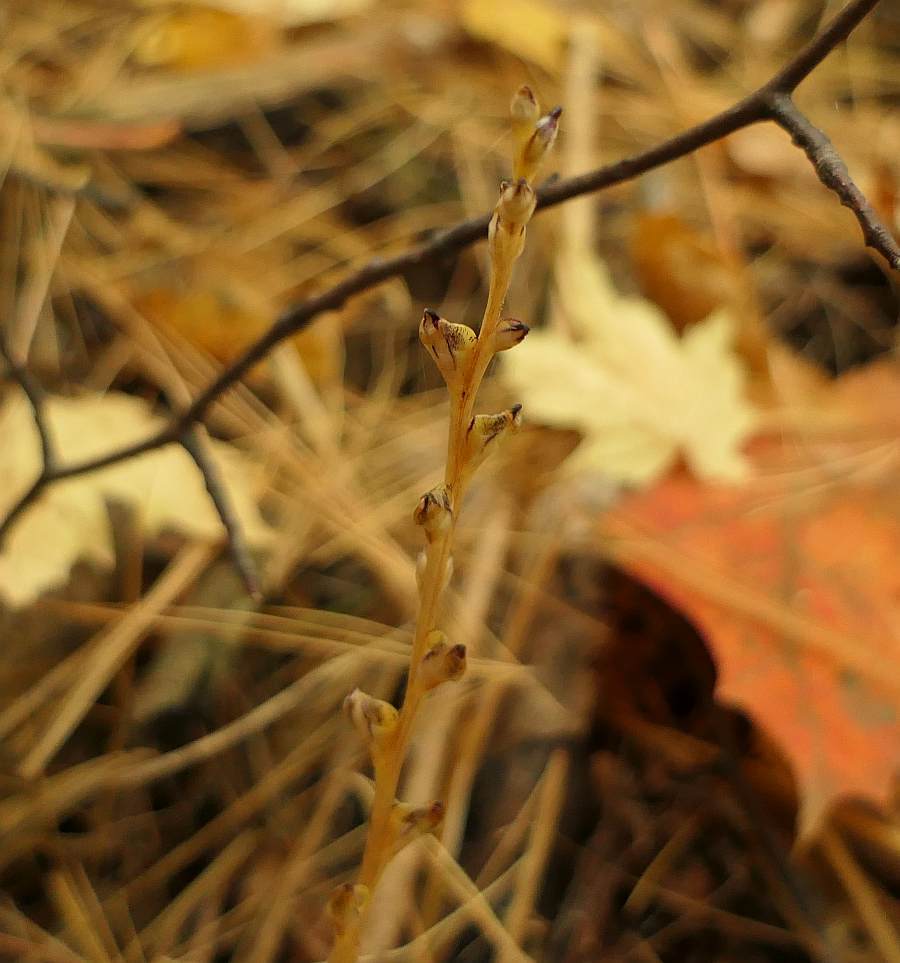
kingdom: Plantae
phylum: Tracheophyta
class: Magnoliopsida
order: Lamiales
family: Orobanchaceae
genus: Epifagus
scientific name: Epifagus virginiana
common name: Beechdrops
